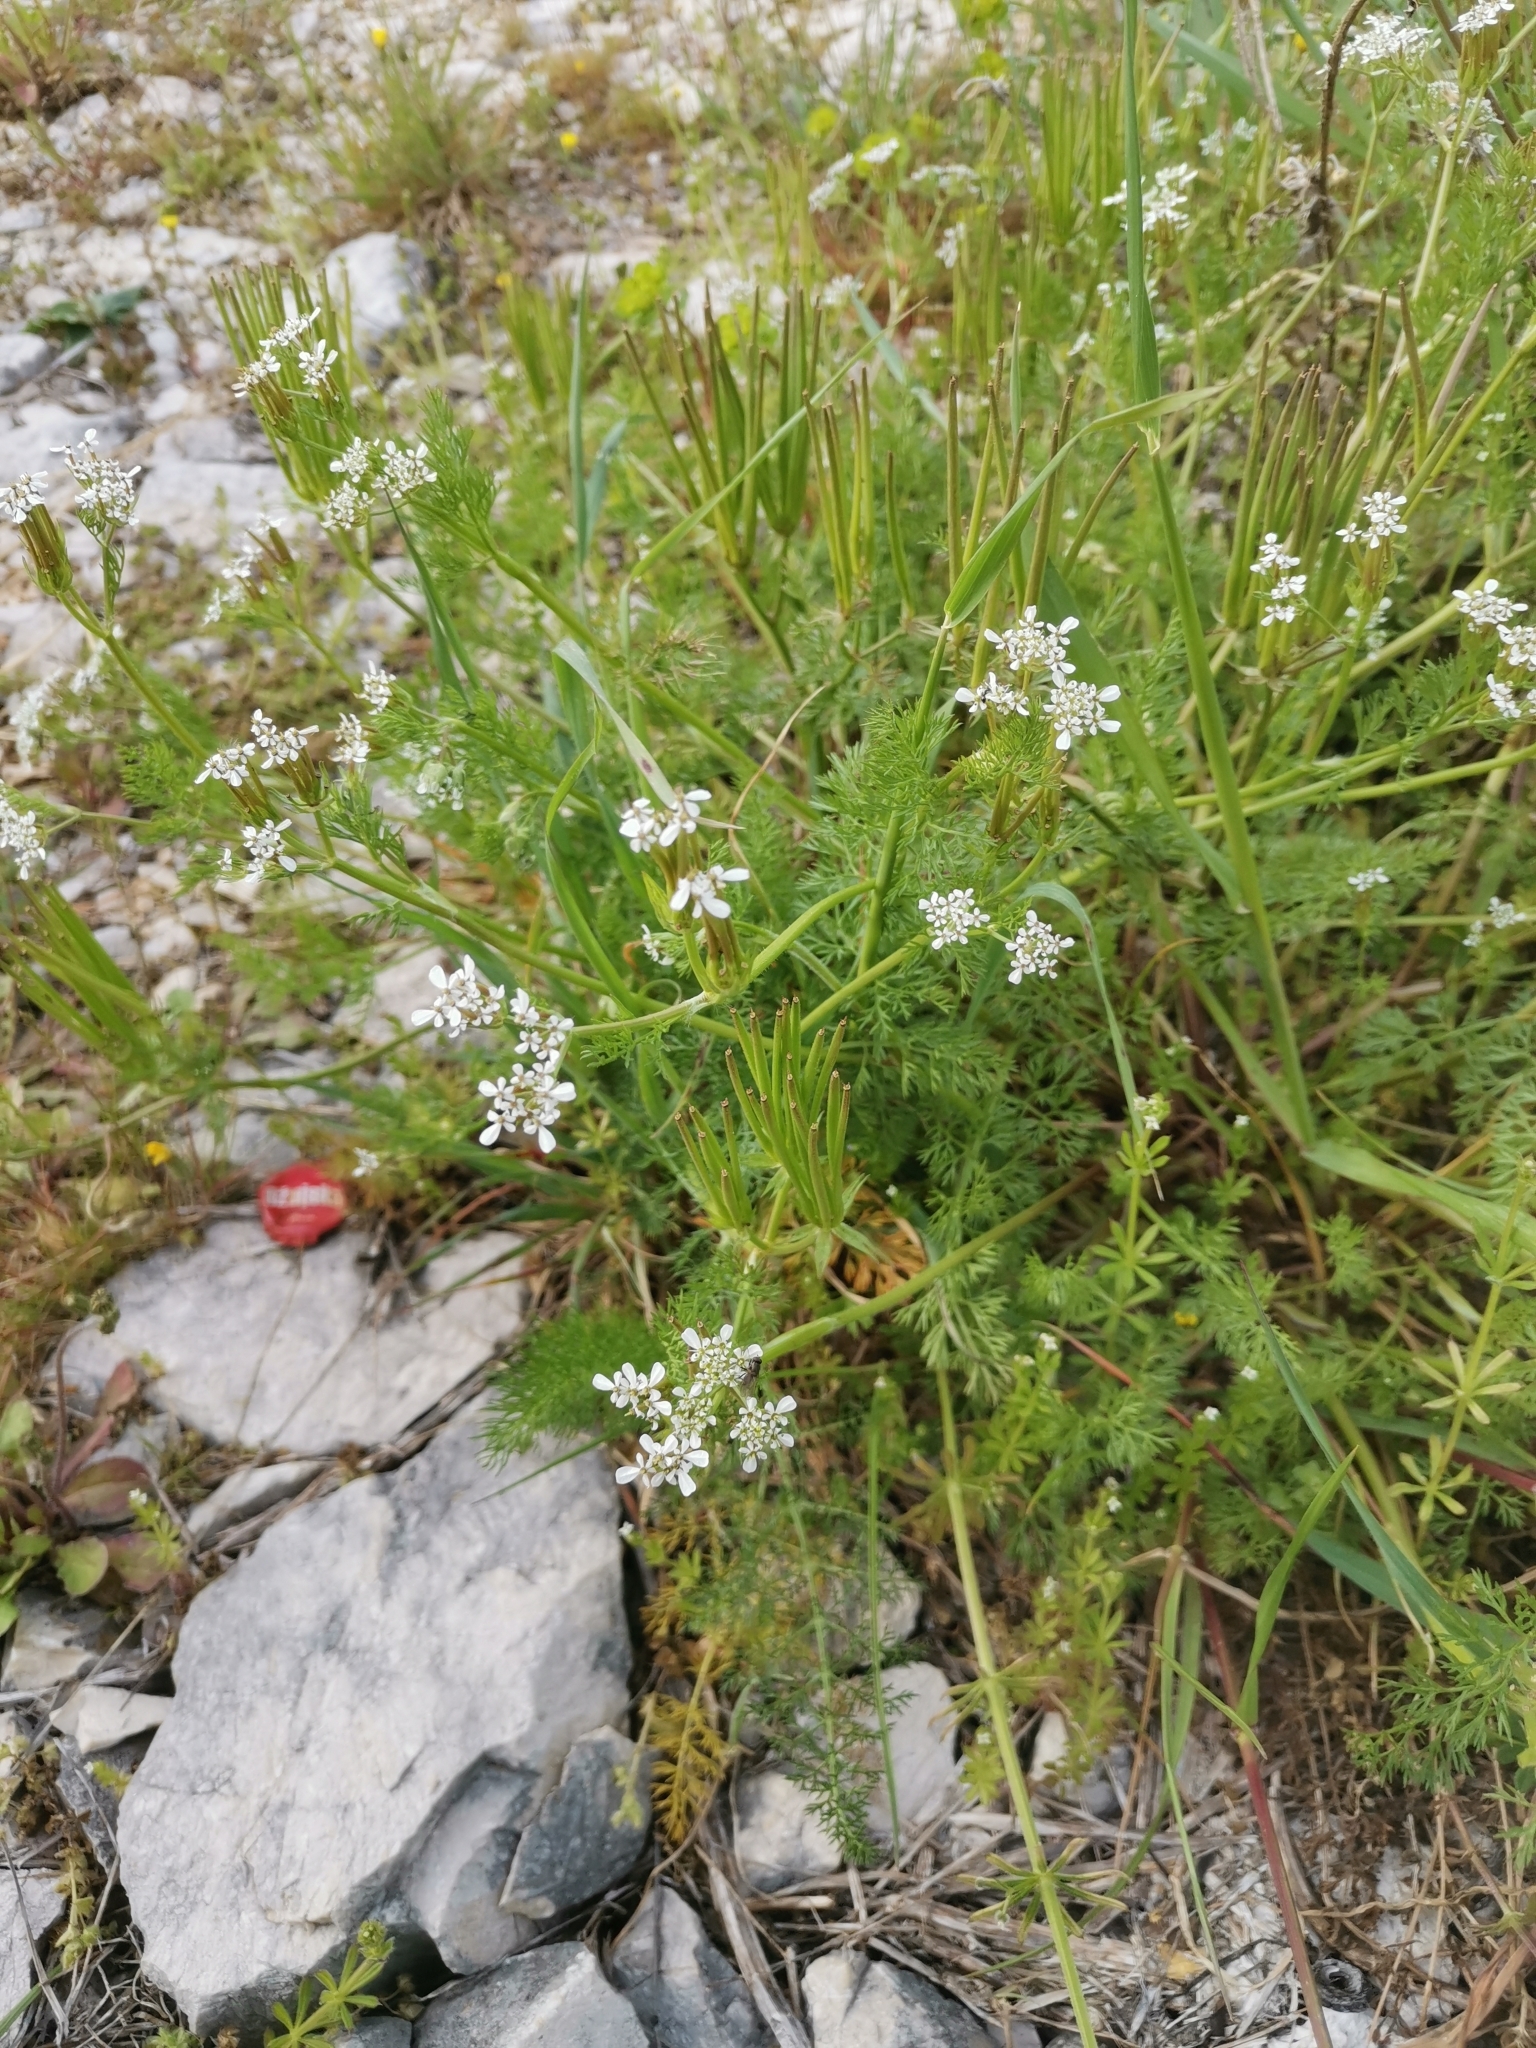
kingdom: Plantae
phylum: Tracheophyta
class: Magnoliopsida
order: Apiales
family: Apiaceae
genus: Scandix
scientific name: Scandix pecten-veneris
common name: Shepherd's-needle
